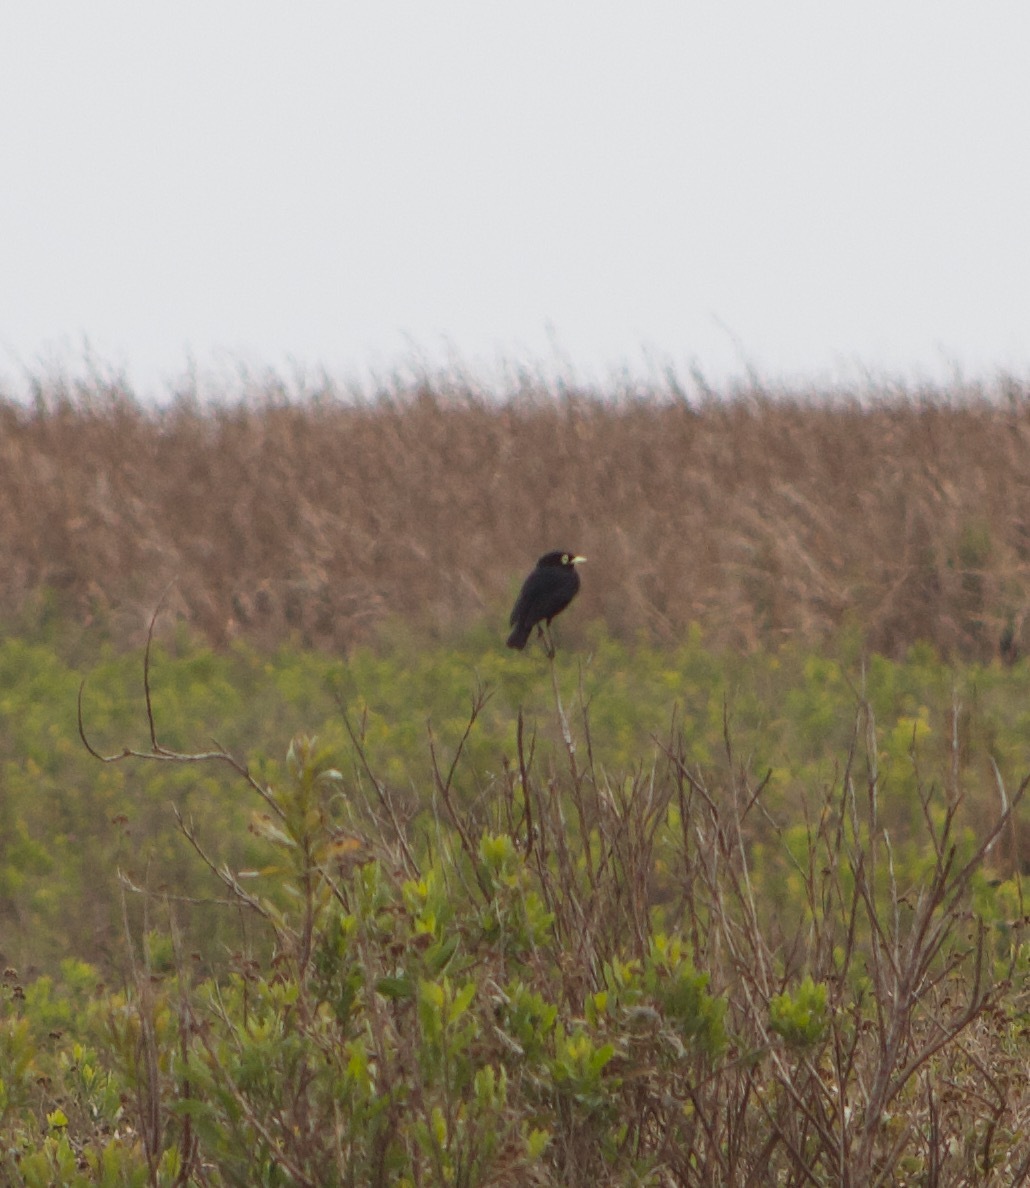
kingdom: Animalia
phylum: Chordata
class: Aves
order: Passeriformes
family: Tyrannidae
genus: Hymenops
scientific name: Hymenops perspicillatus
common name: Spectacled tyrant
